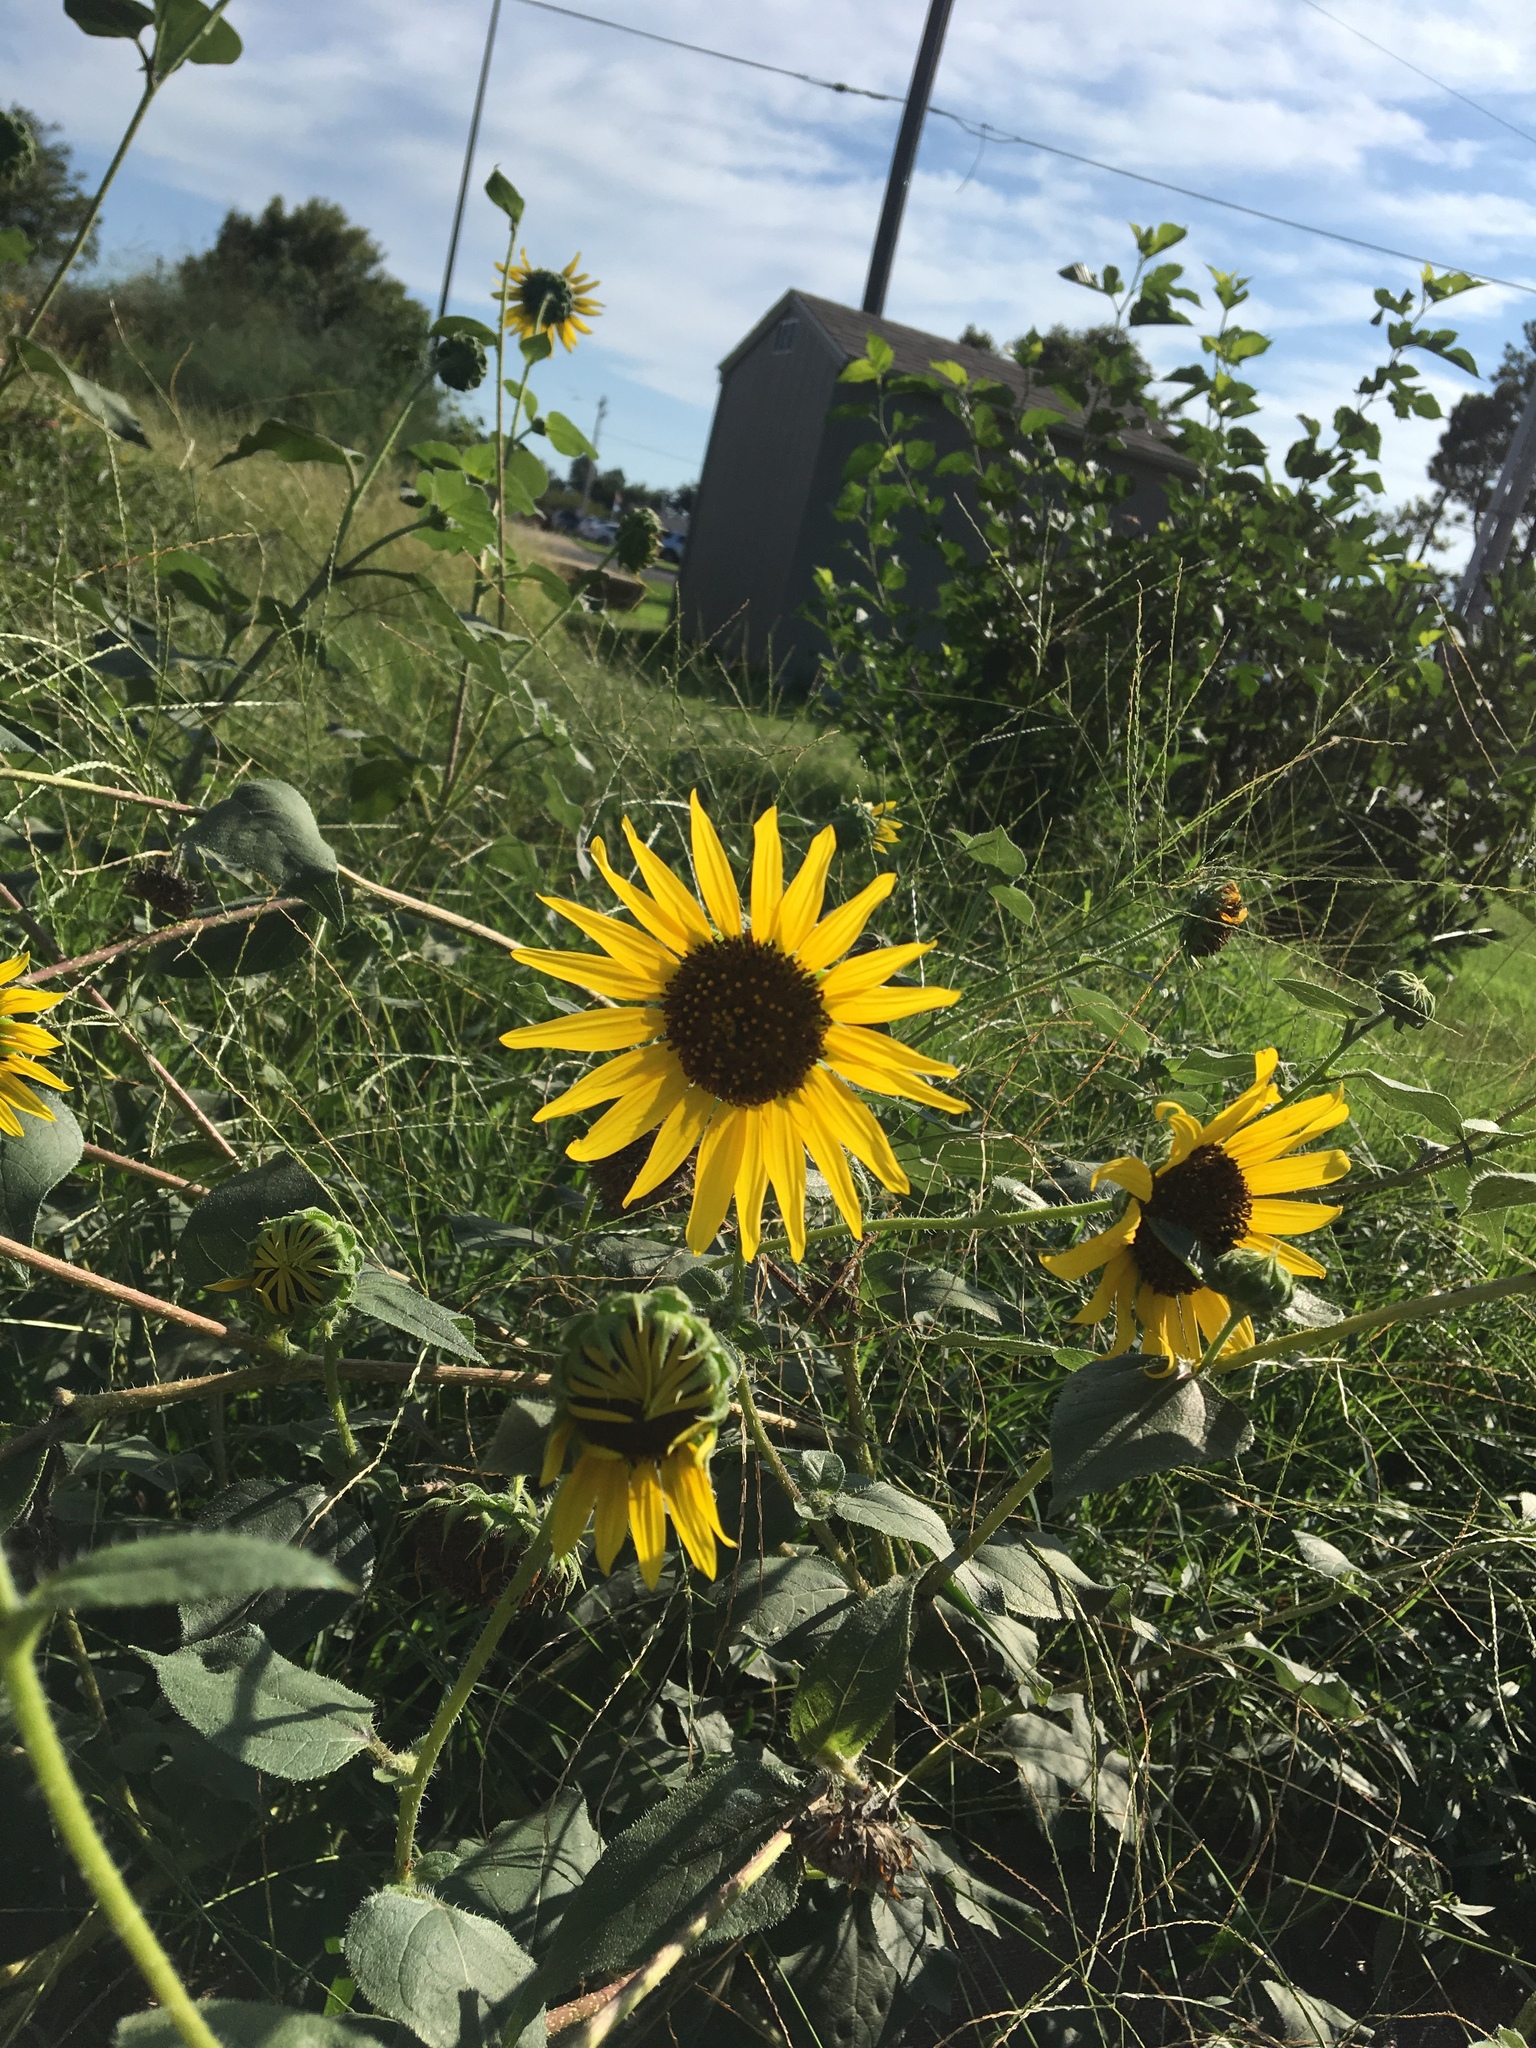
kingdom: Plantae
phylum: Tracheophyta
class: Magnoliopsida
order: Asterales
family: Asteraceae
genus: Helianthus
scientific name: Helianthus annuus
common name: Sunflower
